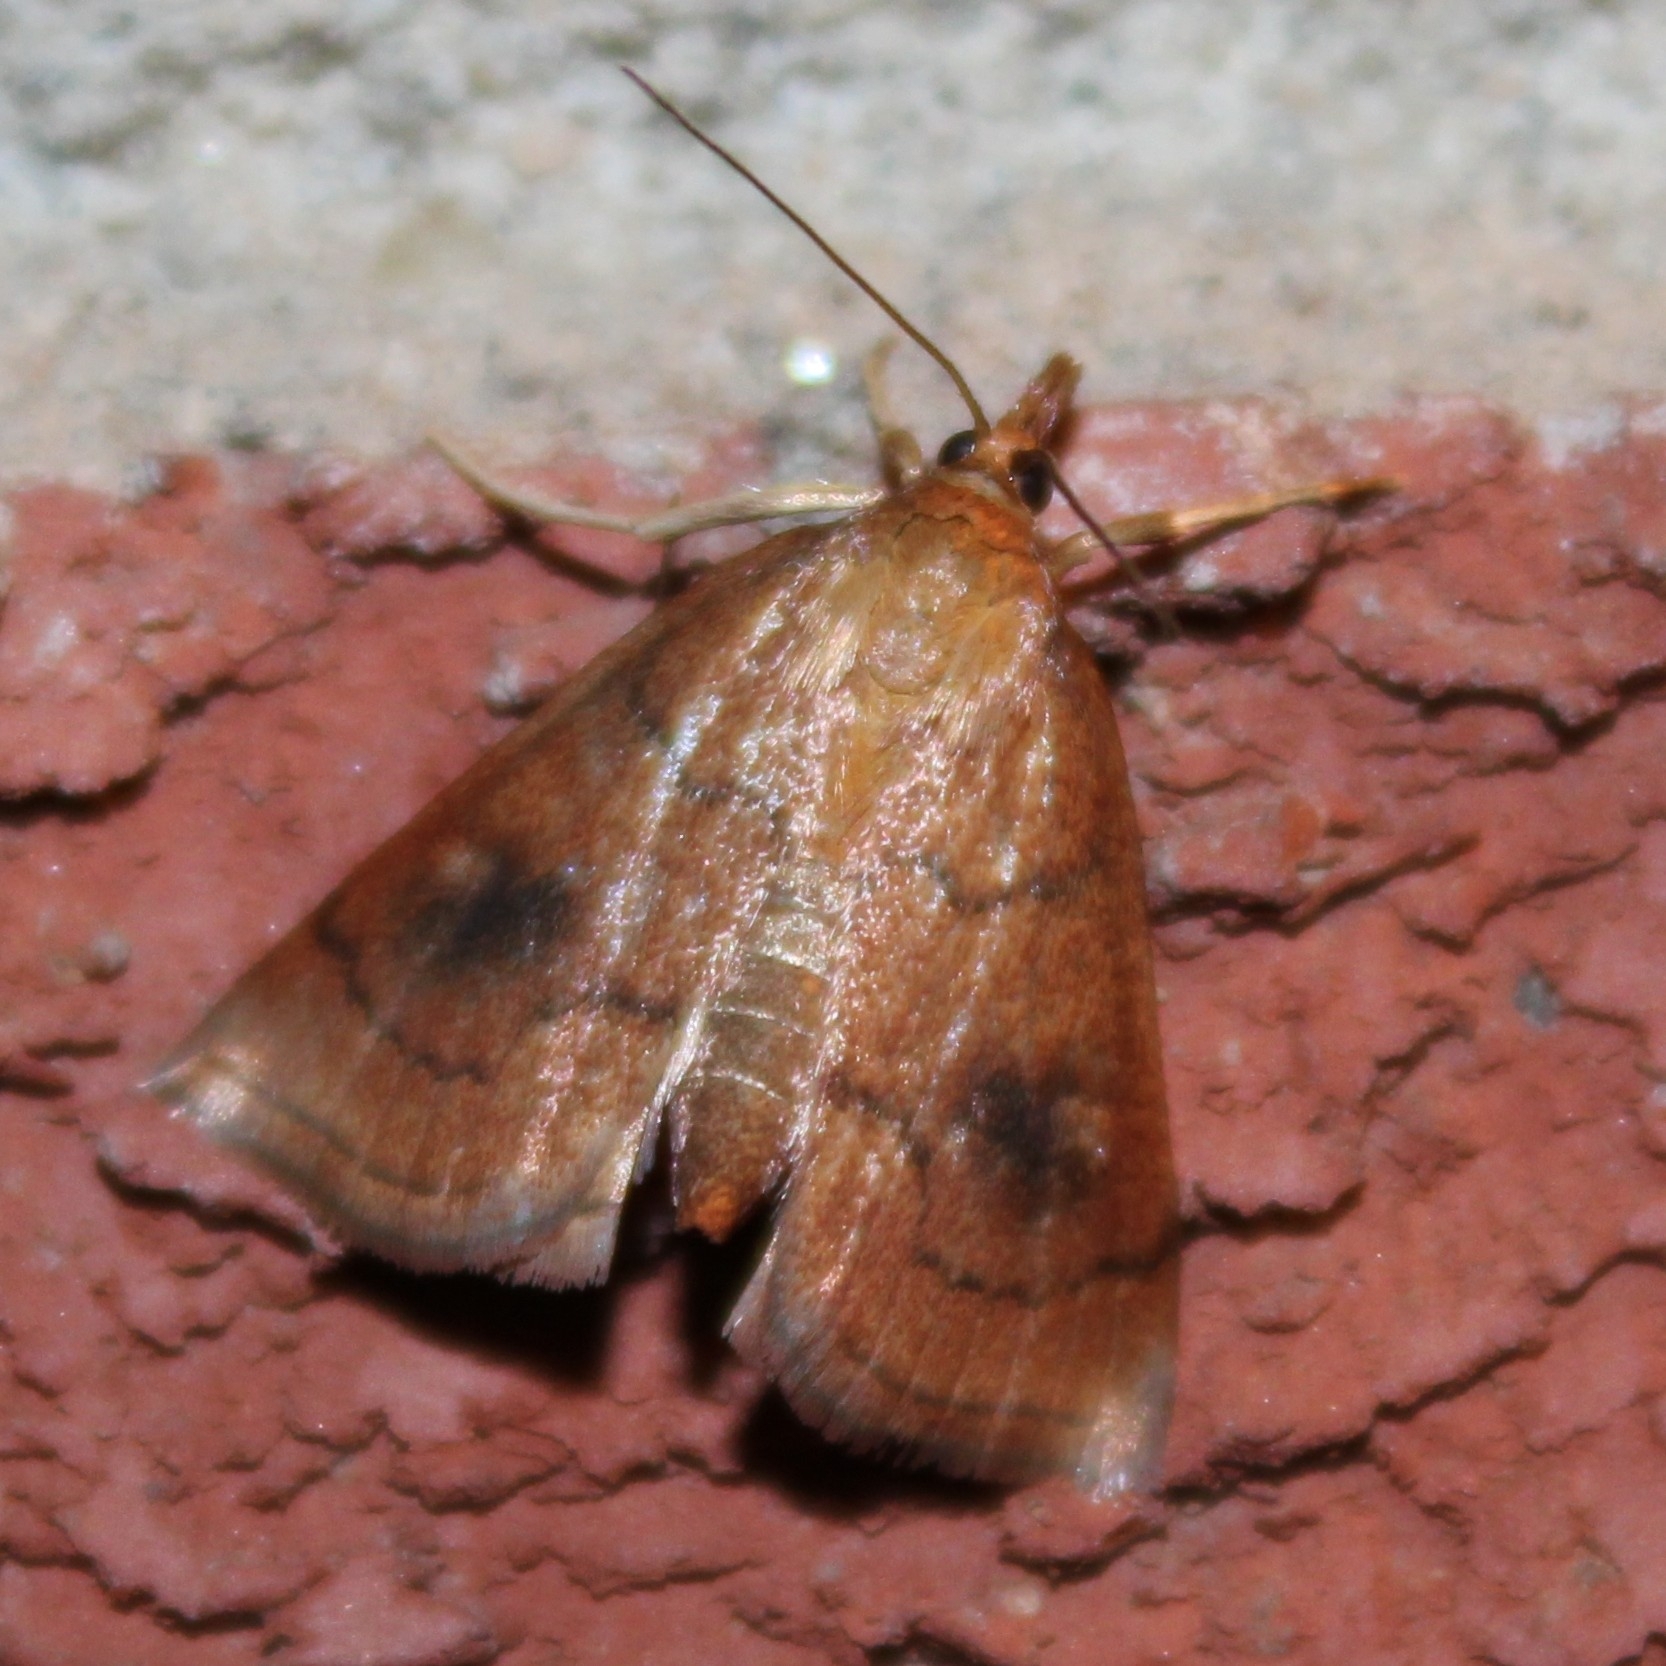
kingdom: Animalia
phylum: Arthropoda
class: Insecta
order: Lepidoptera
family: Crambidae
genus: Fumibotys
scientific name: Fumibotys fumalis
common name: Mint root borer moth
